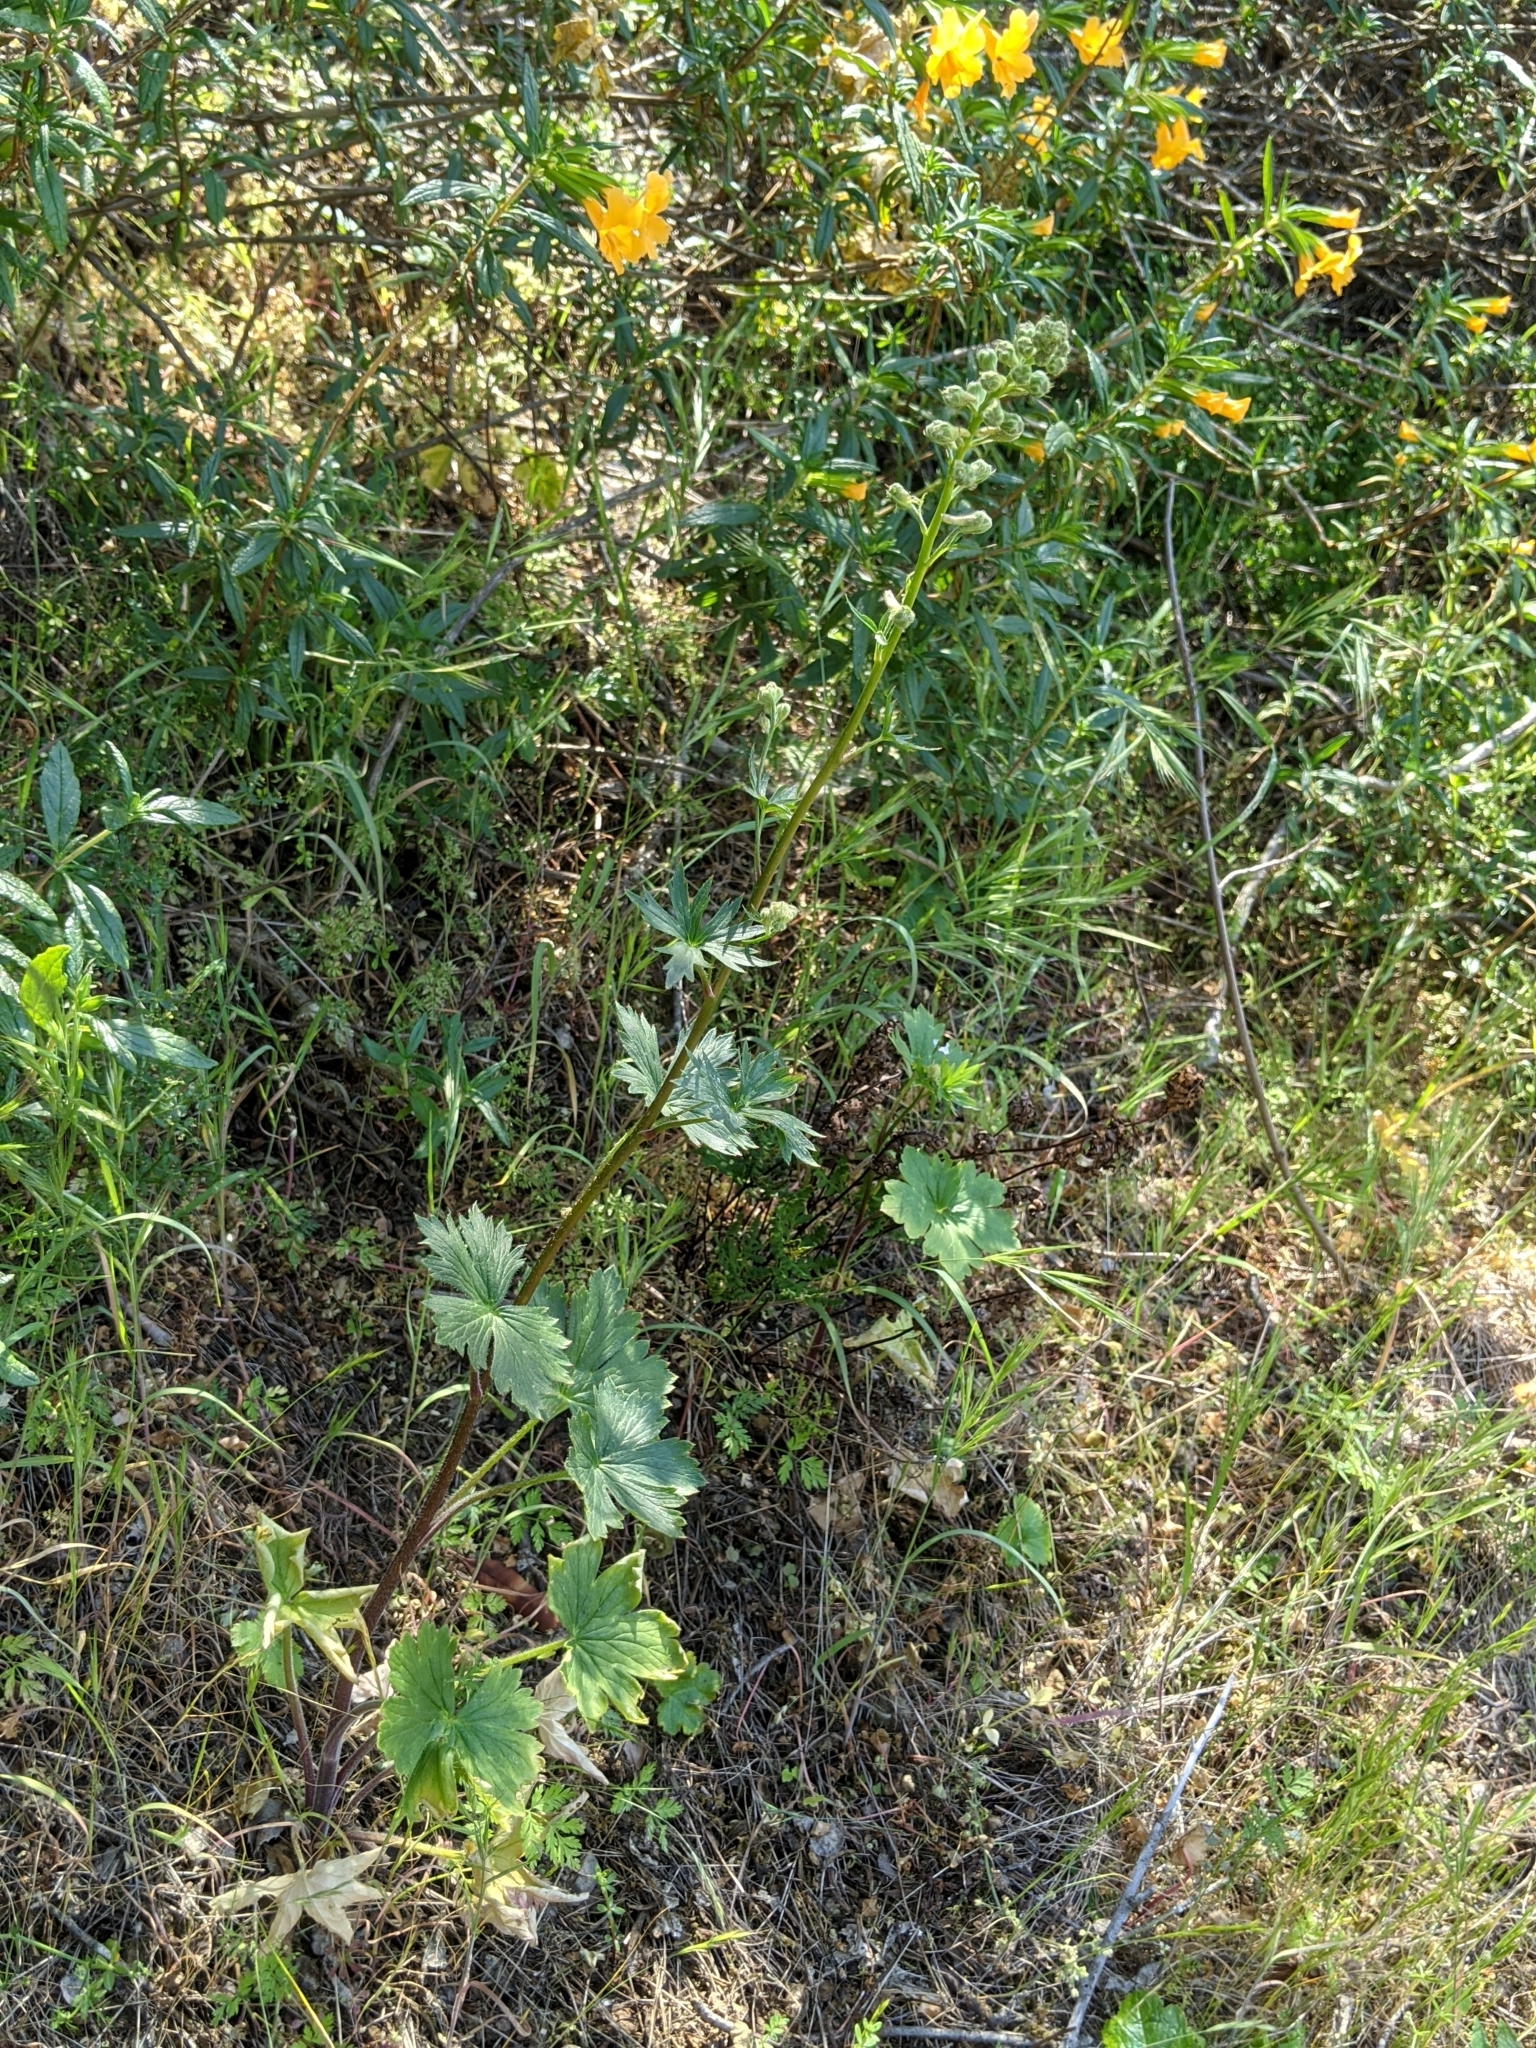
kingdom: Plantae
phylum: Tracheophyta
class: Magnoliopsida
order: Ranunculales
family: Ranunculaceae
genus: Delphinium
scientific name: Delphinium californicum
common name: California larkspur
